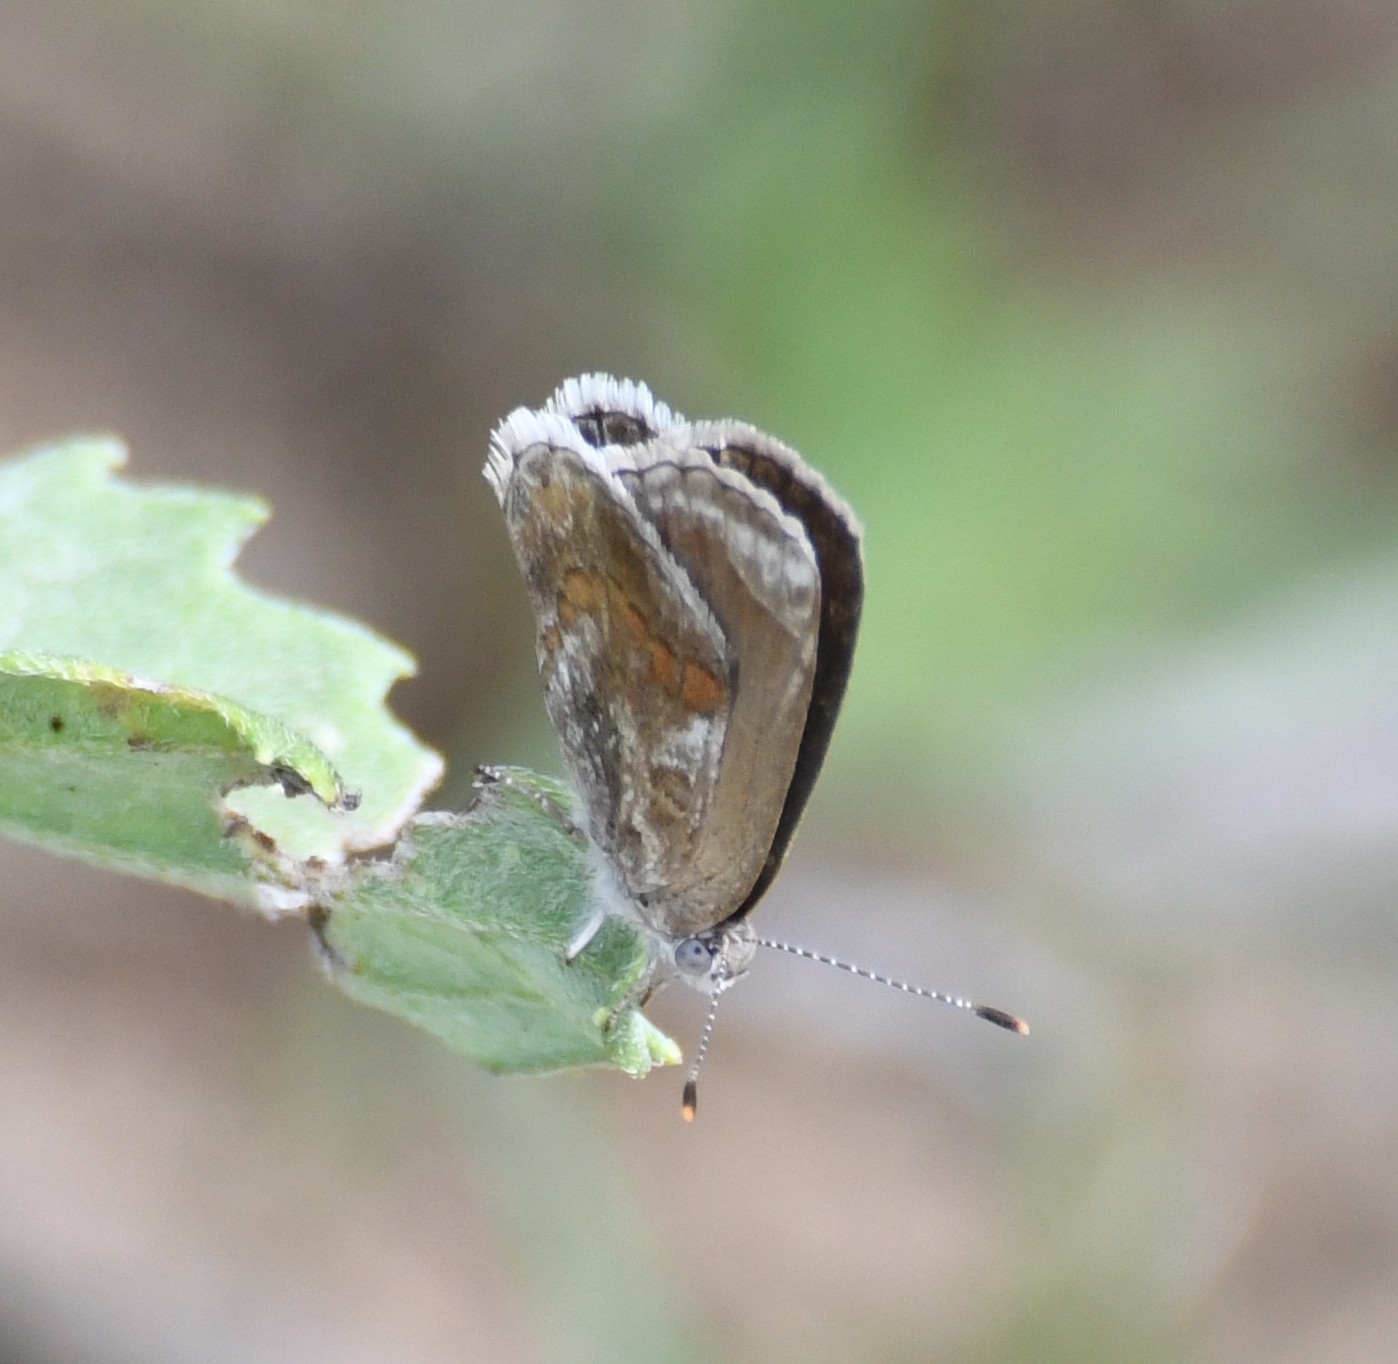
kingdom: Animalia
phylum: Arthropoda
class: Insecta
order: Lepidoptera
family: Lycaenidae
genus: Strymon
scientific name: Strymon bazochii
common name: Lantana scrub-hairstreak
